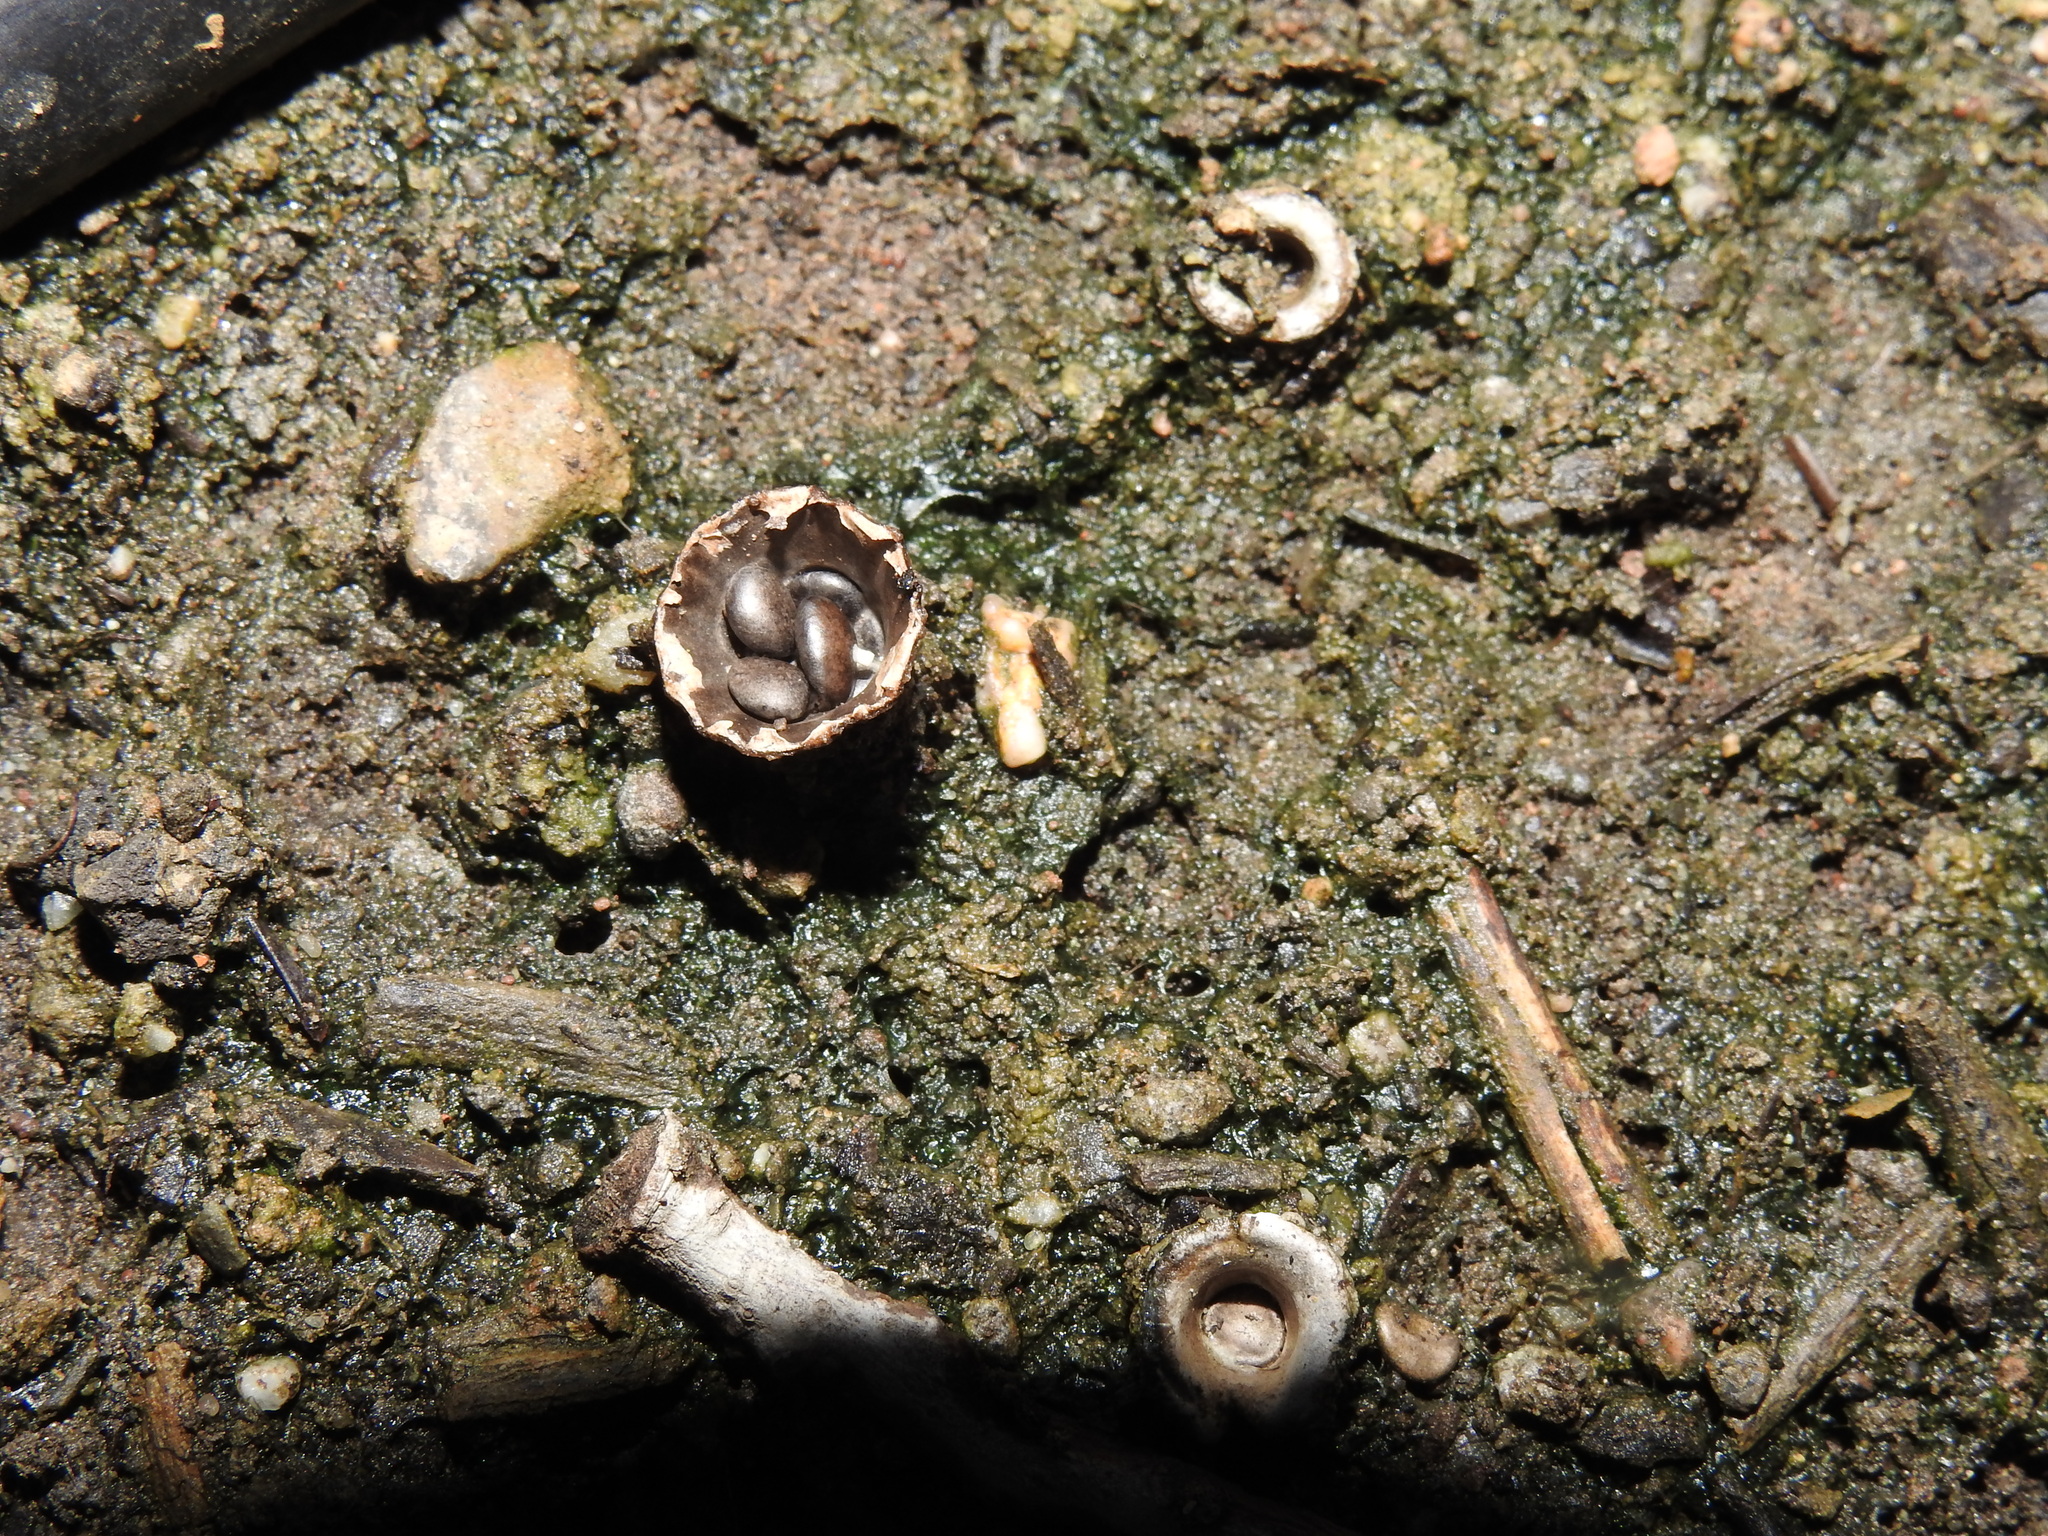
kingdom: Fungi
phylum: Basidiomycota
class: Agaricomycetes
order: Agaricales
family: Agaricaceae
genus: Cyathus
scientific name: Cyathus olla
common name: Field bird's nest
